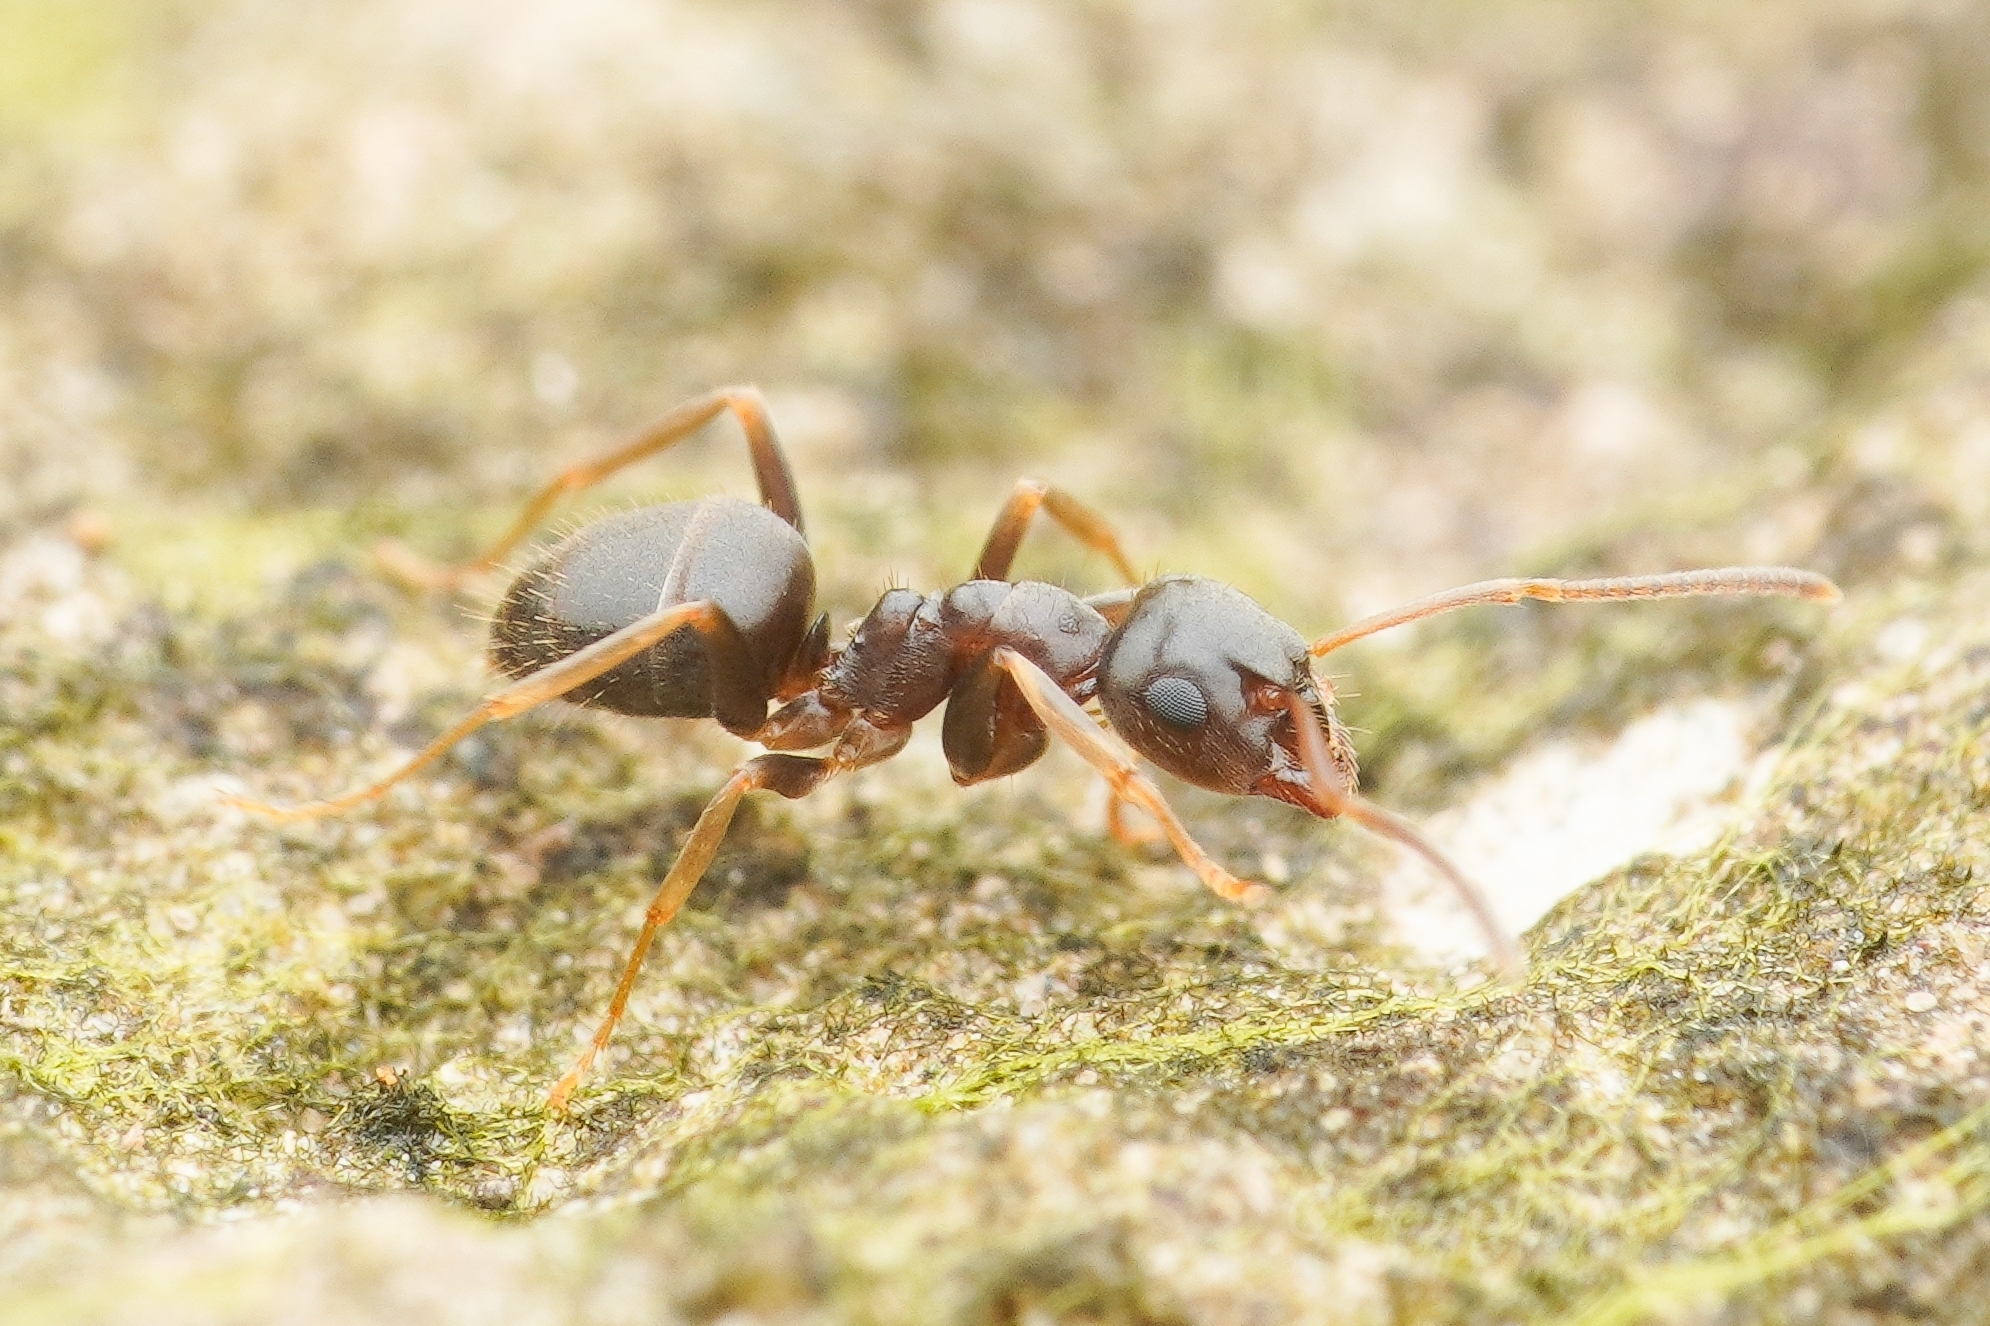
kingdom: Animalia
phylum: Arthropoda
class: Insecta
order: Hymenoptera
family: Formicidae
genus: Lasius
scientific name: Lasius
